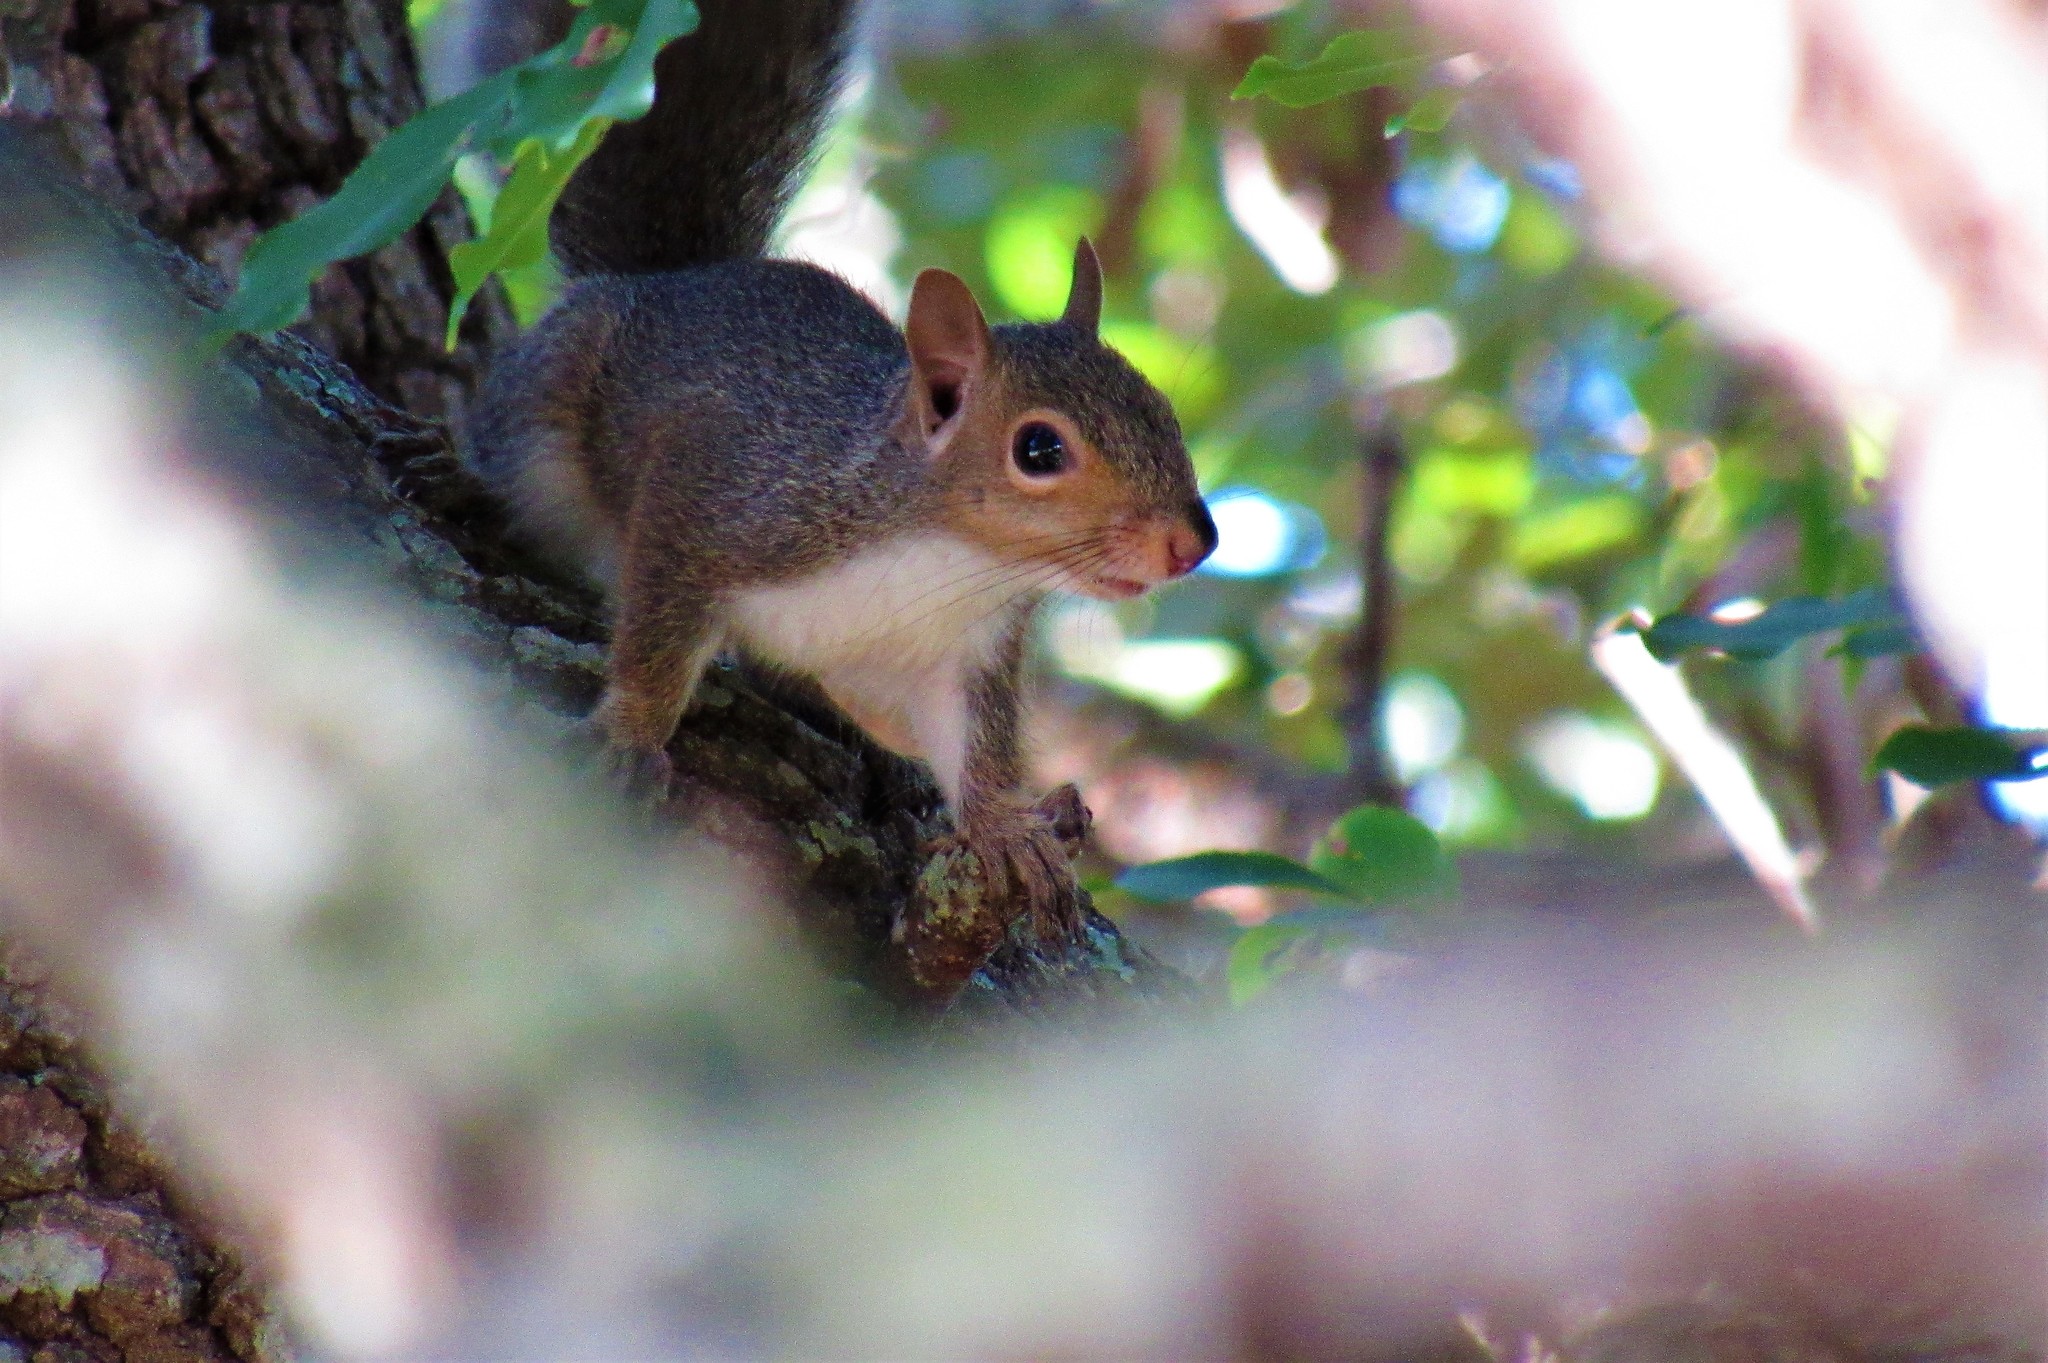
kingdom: Animalia
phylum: Chordata
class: Mammalia
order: Rodentia
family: Sciuridae
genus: Sciurus
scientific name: Sciurus carolinensis
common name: Eastern gray squirrel
